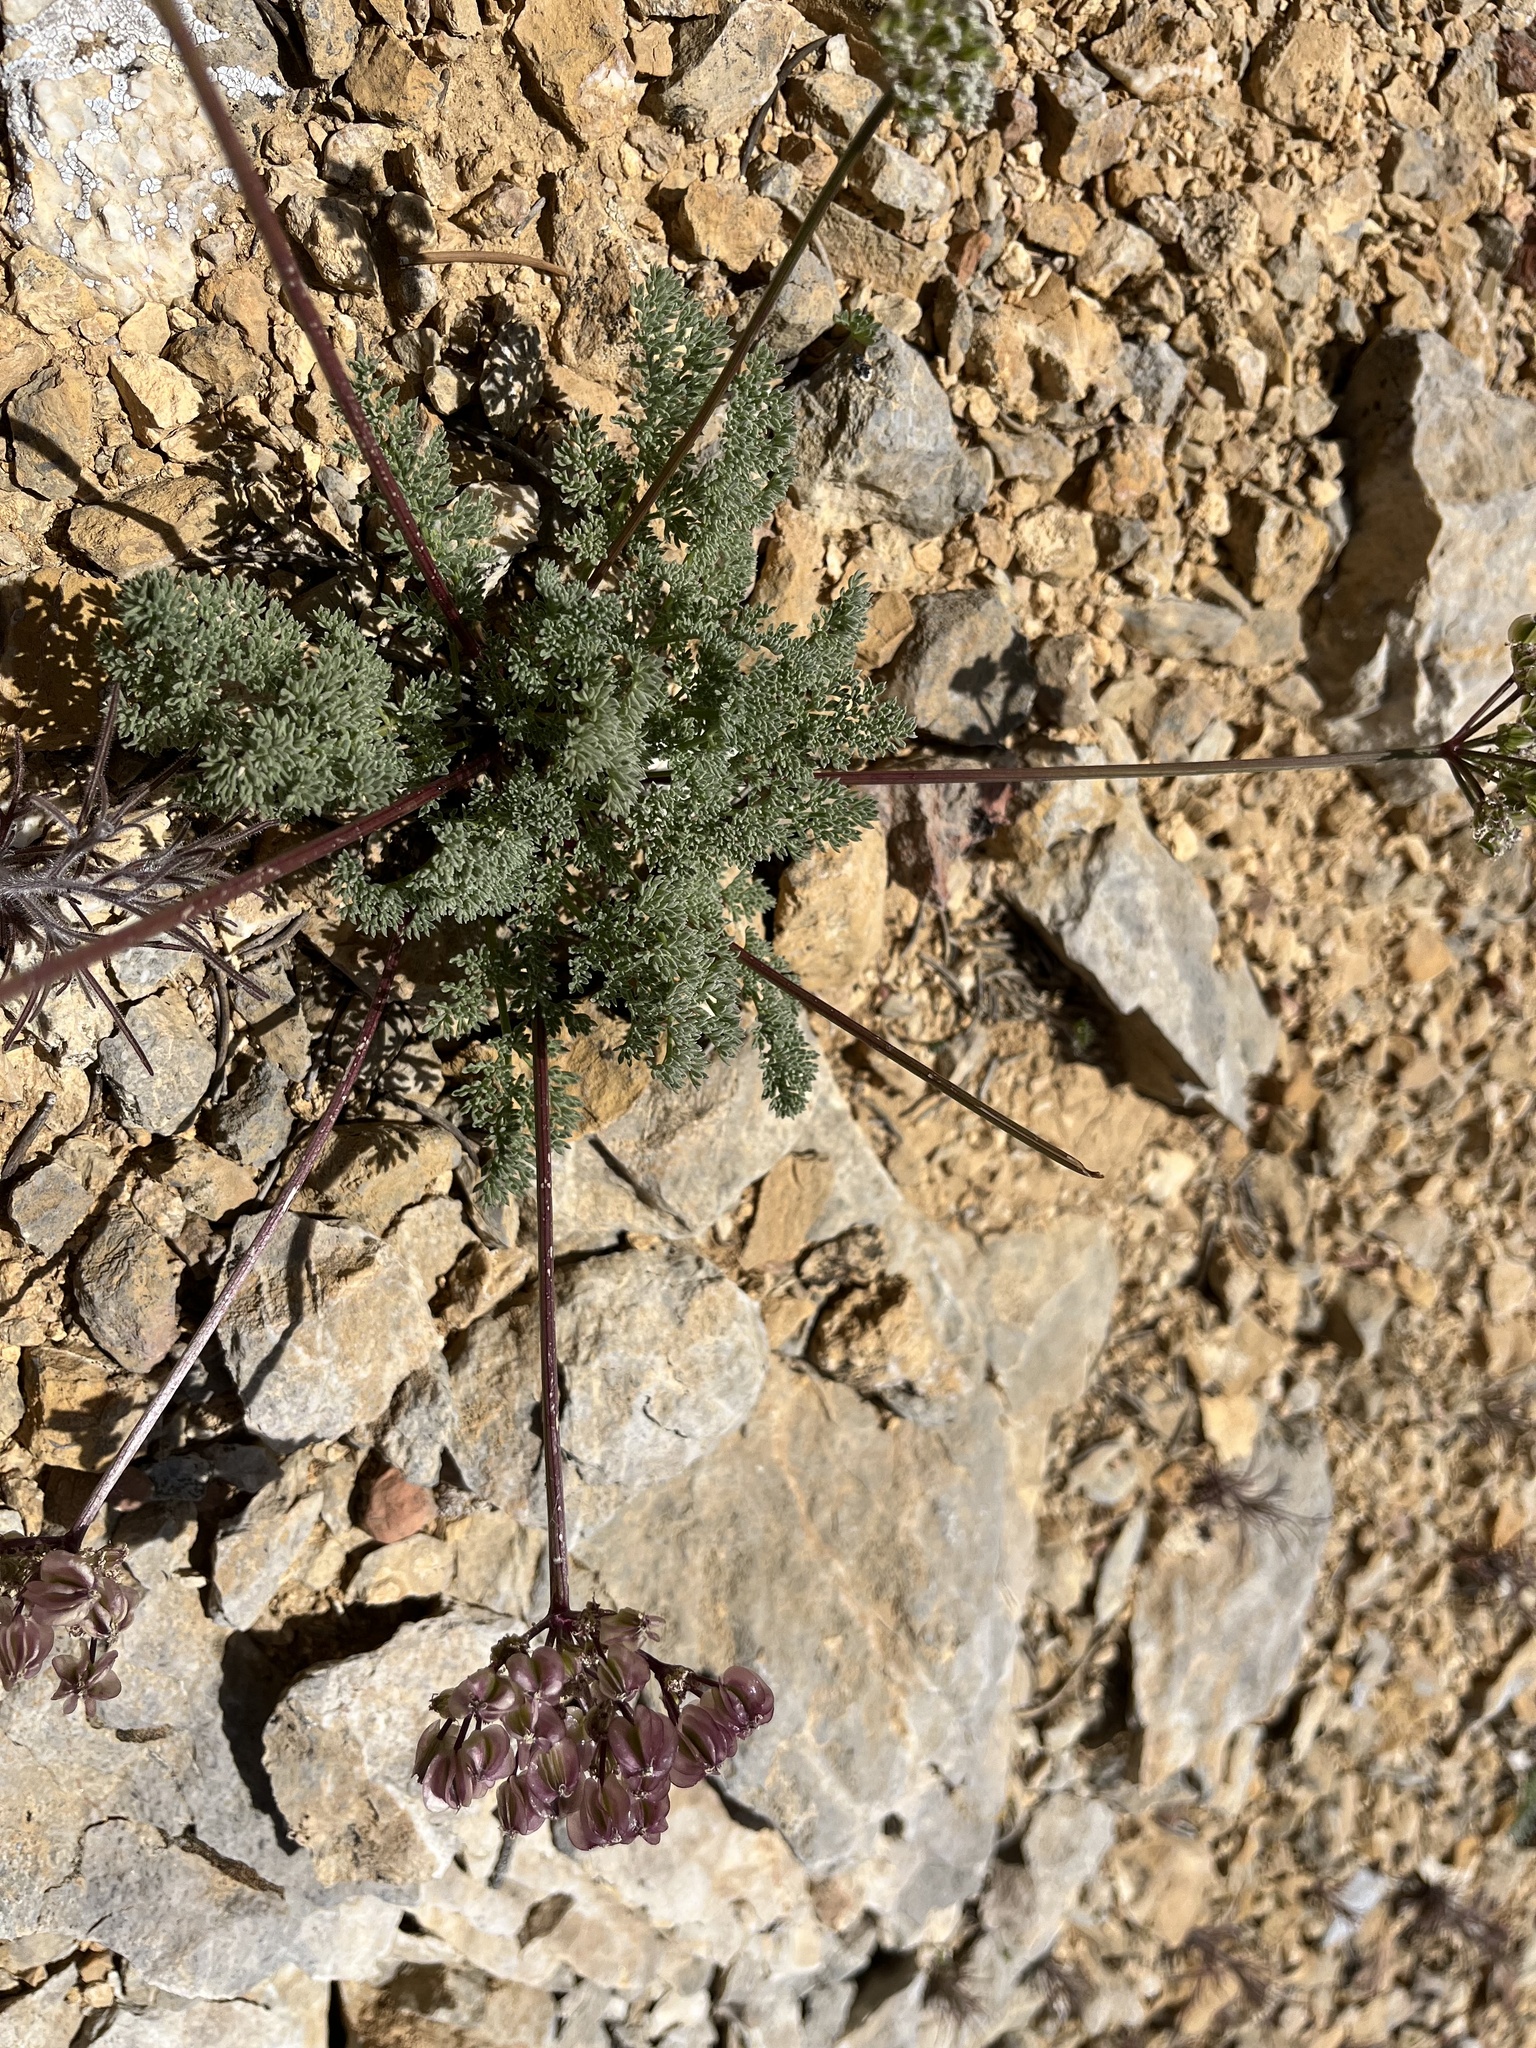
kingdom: Plantae
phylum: Tracheophyta
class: Magnoliopsida
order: Apiales
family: Apiaceae
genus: Aulospermum
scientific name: Aulospermum aboriginum
